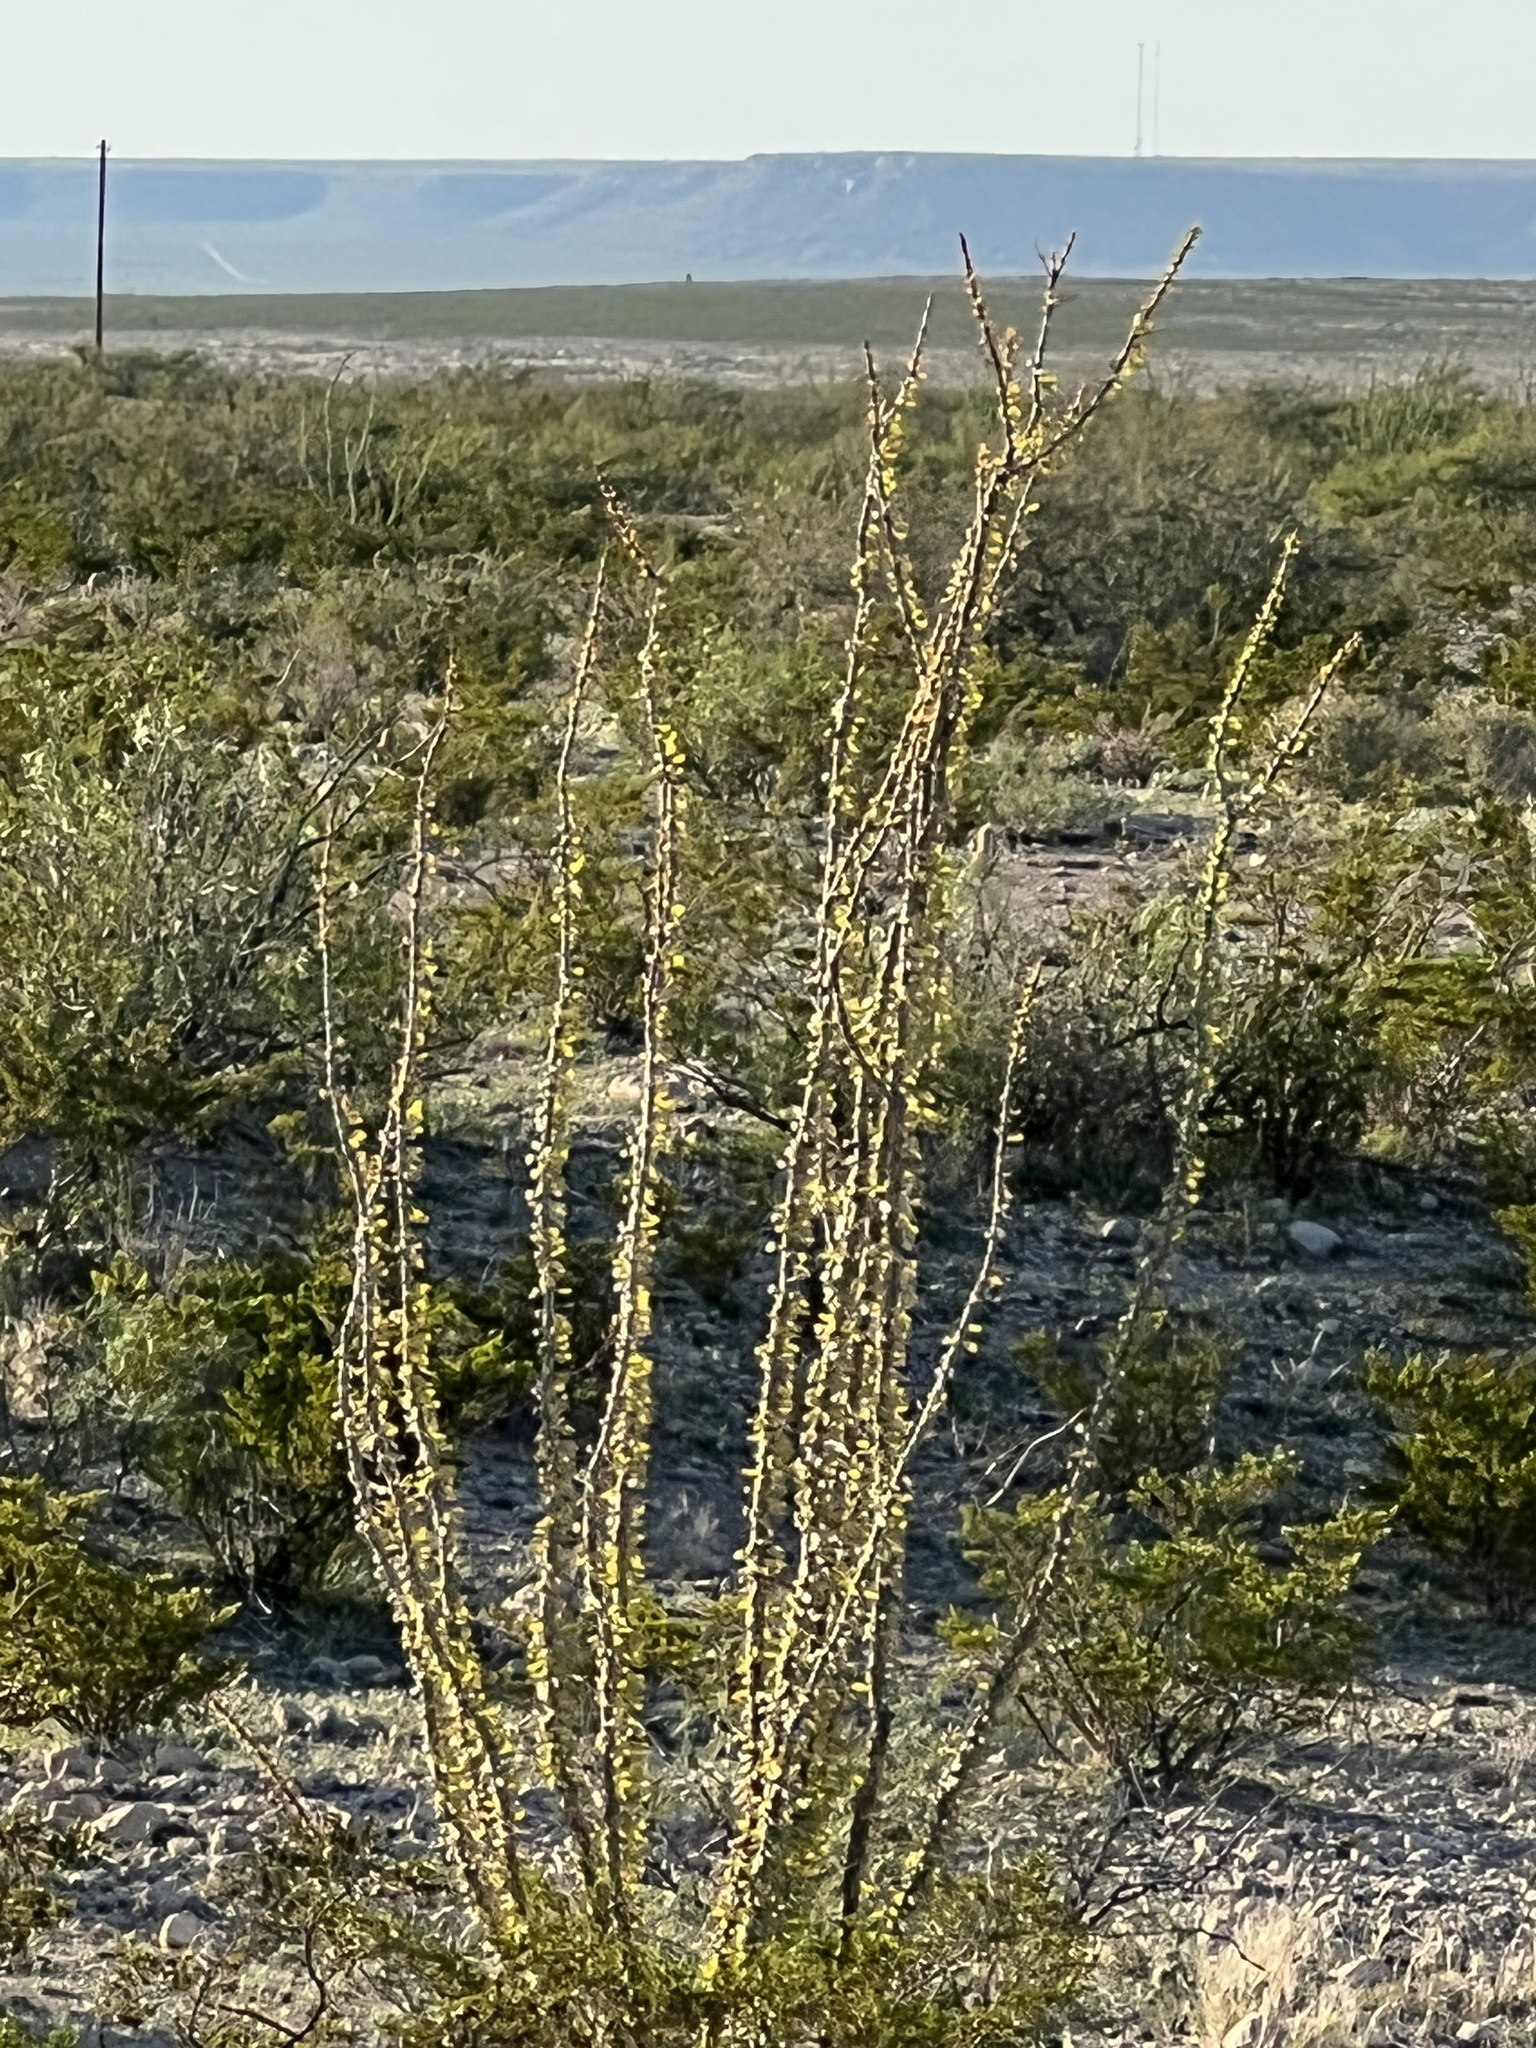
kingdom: Plantae
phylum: Tracheophyta
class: Magnoliopsida
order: Ericales
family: Fouquieriaceae
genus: Fouquieria
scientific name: Fouquieria splendens
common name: Vine-cactus
